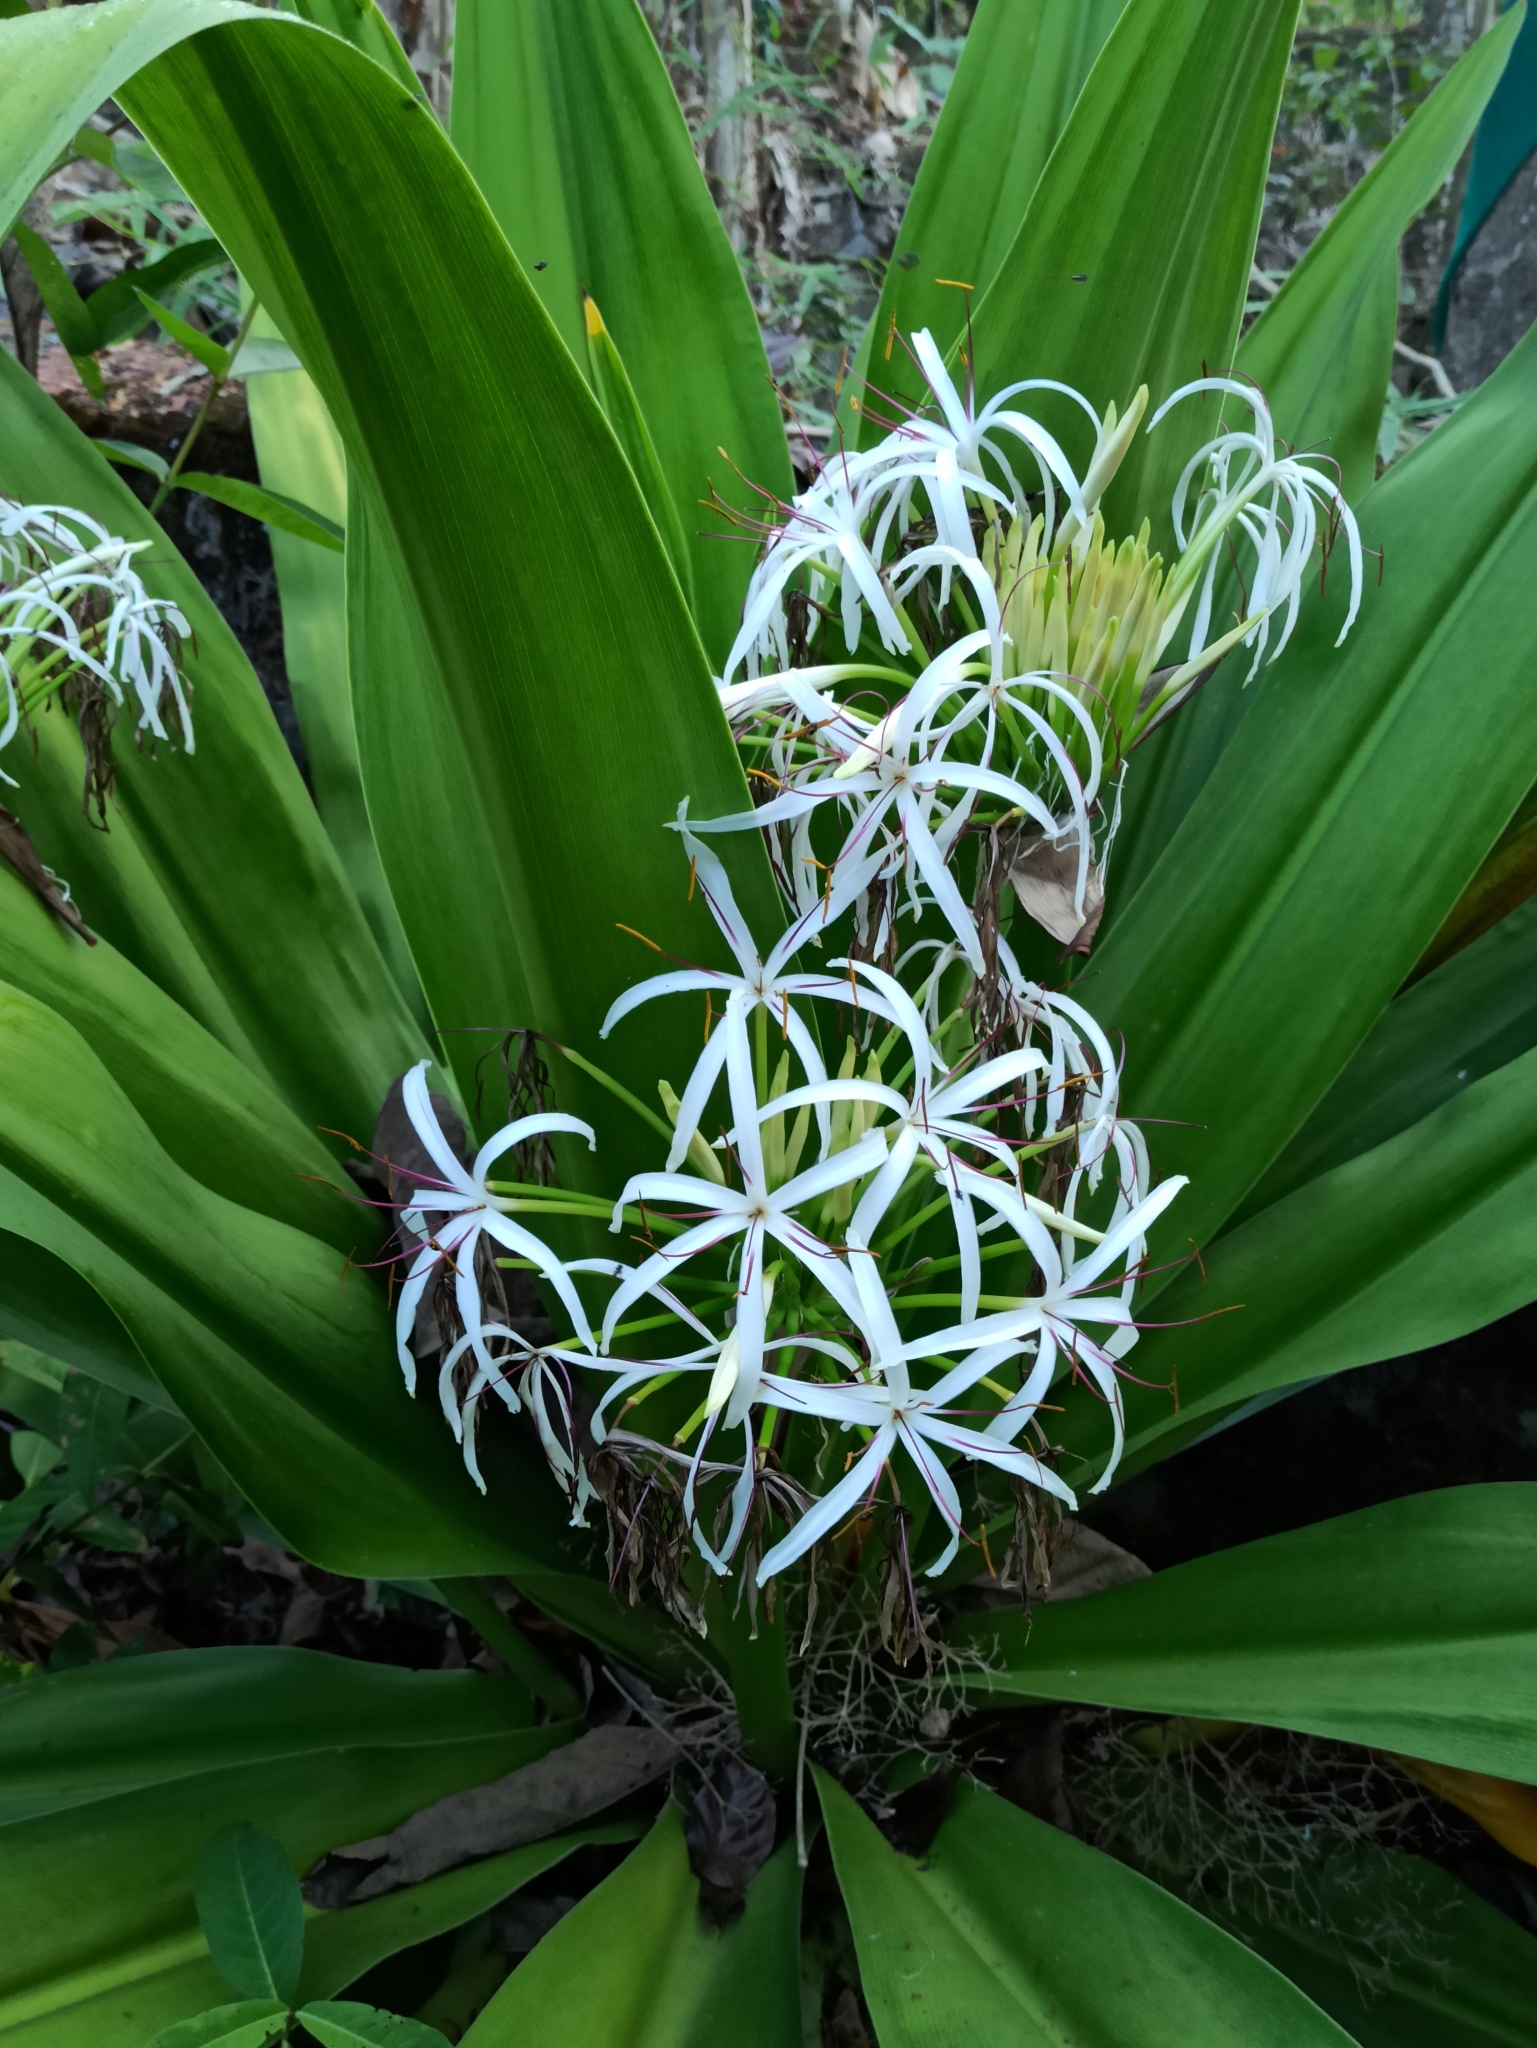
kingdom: Plantae
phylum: Tracheophyta
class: Liliopsida
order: Asparagales
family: Amaryllidaceae
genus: Crinum
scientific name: Crinum asiaticum
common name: Poisonbulb
